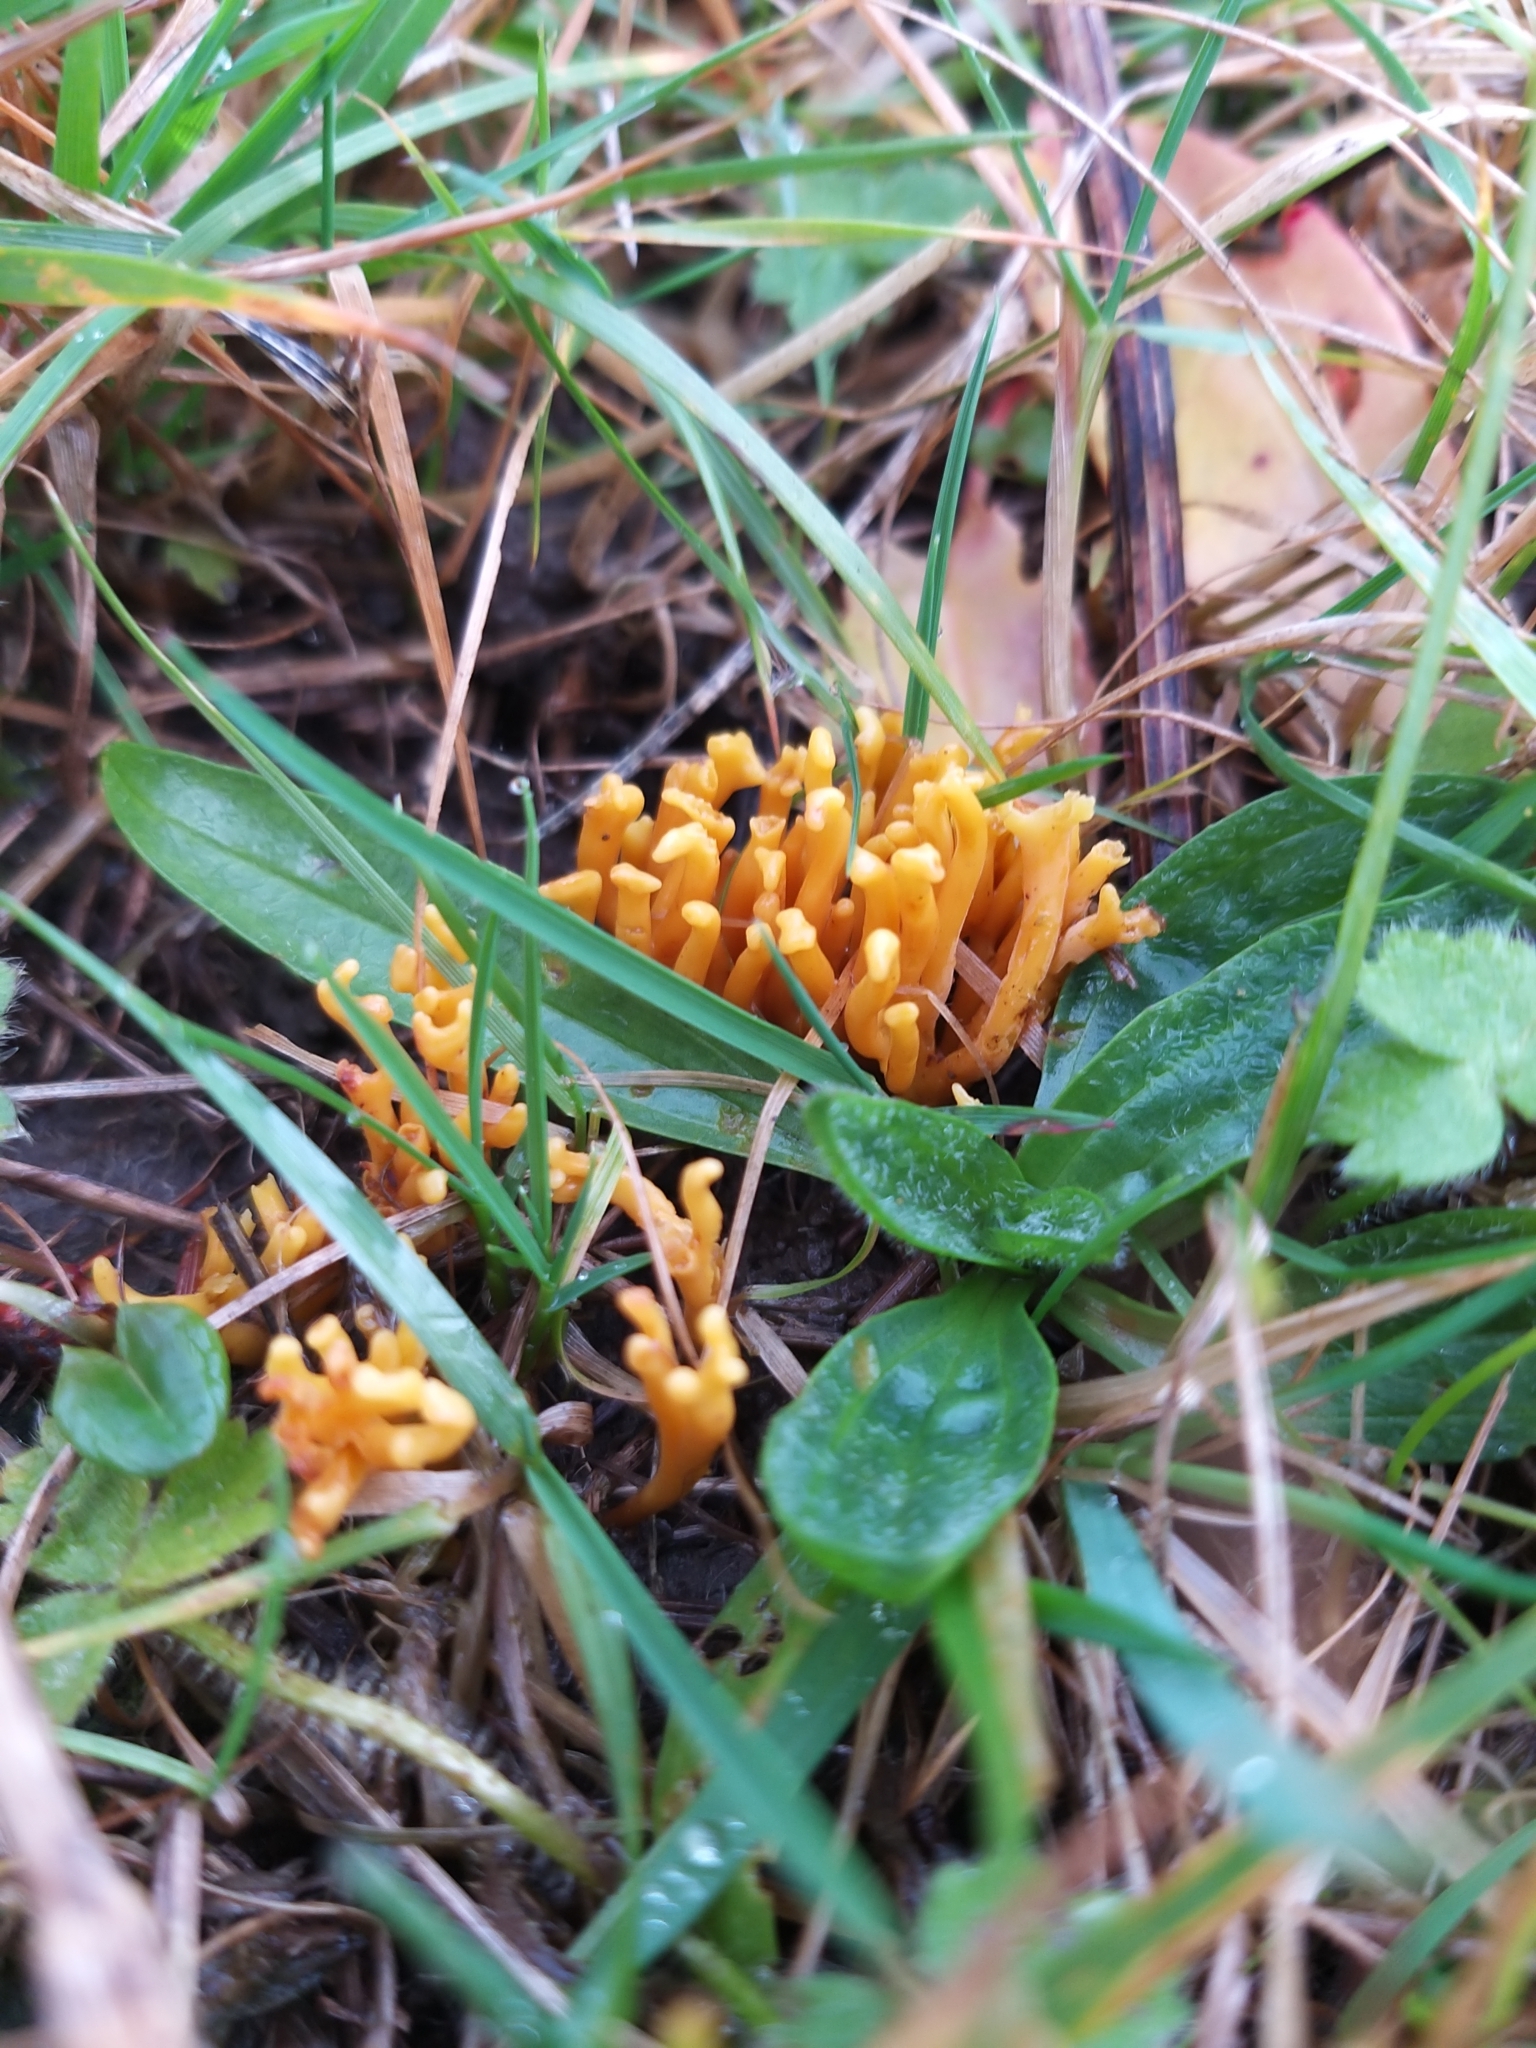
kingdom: Fungi
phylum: Basidiomycota
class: Agaricomycetes
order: Agaricales
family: Clavariaceae
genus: Clavulinopsis
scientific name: Clavulinopsis corniculata
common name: Meadow coral
